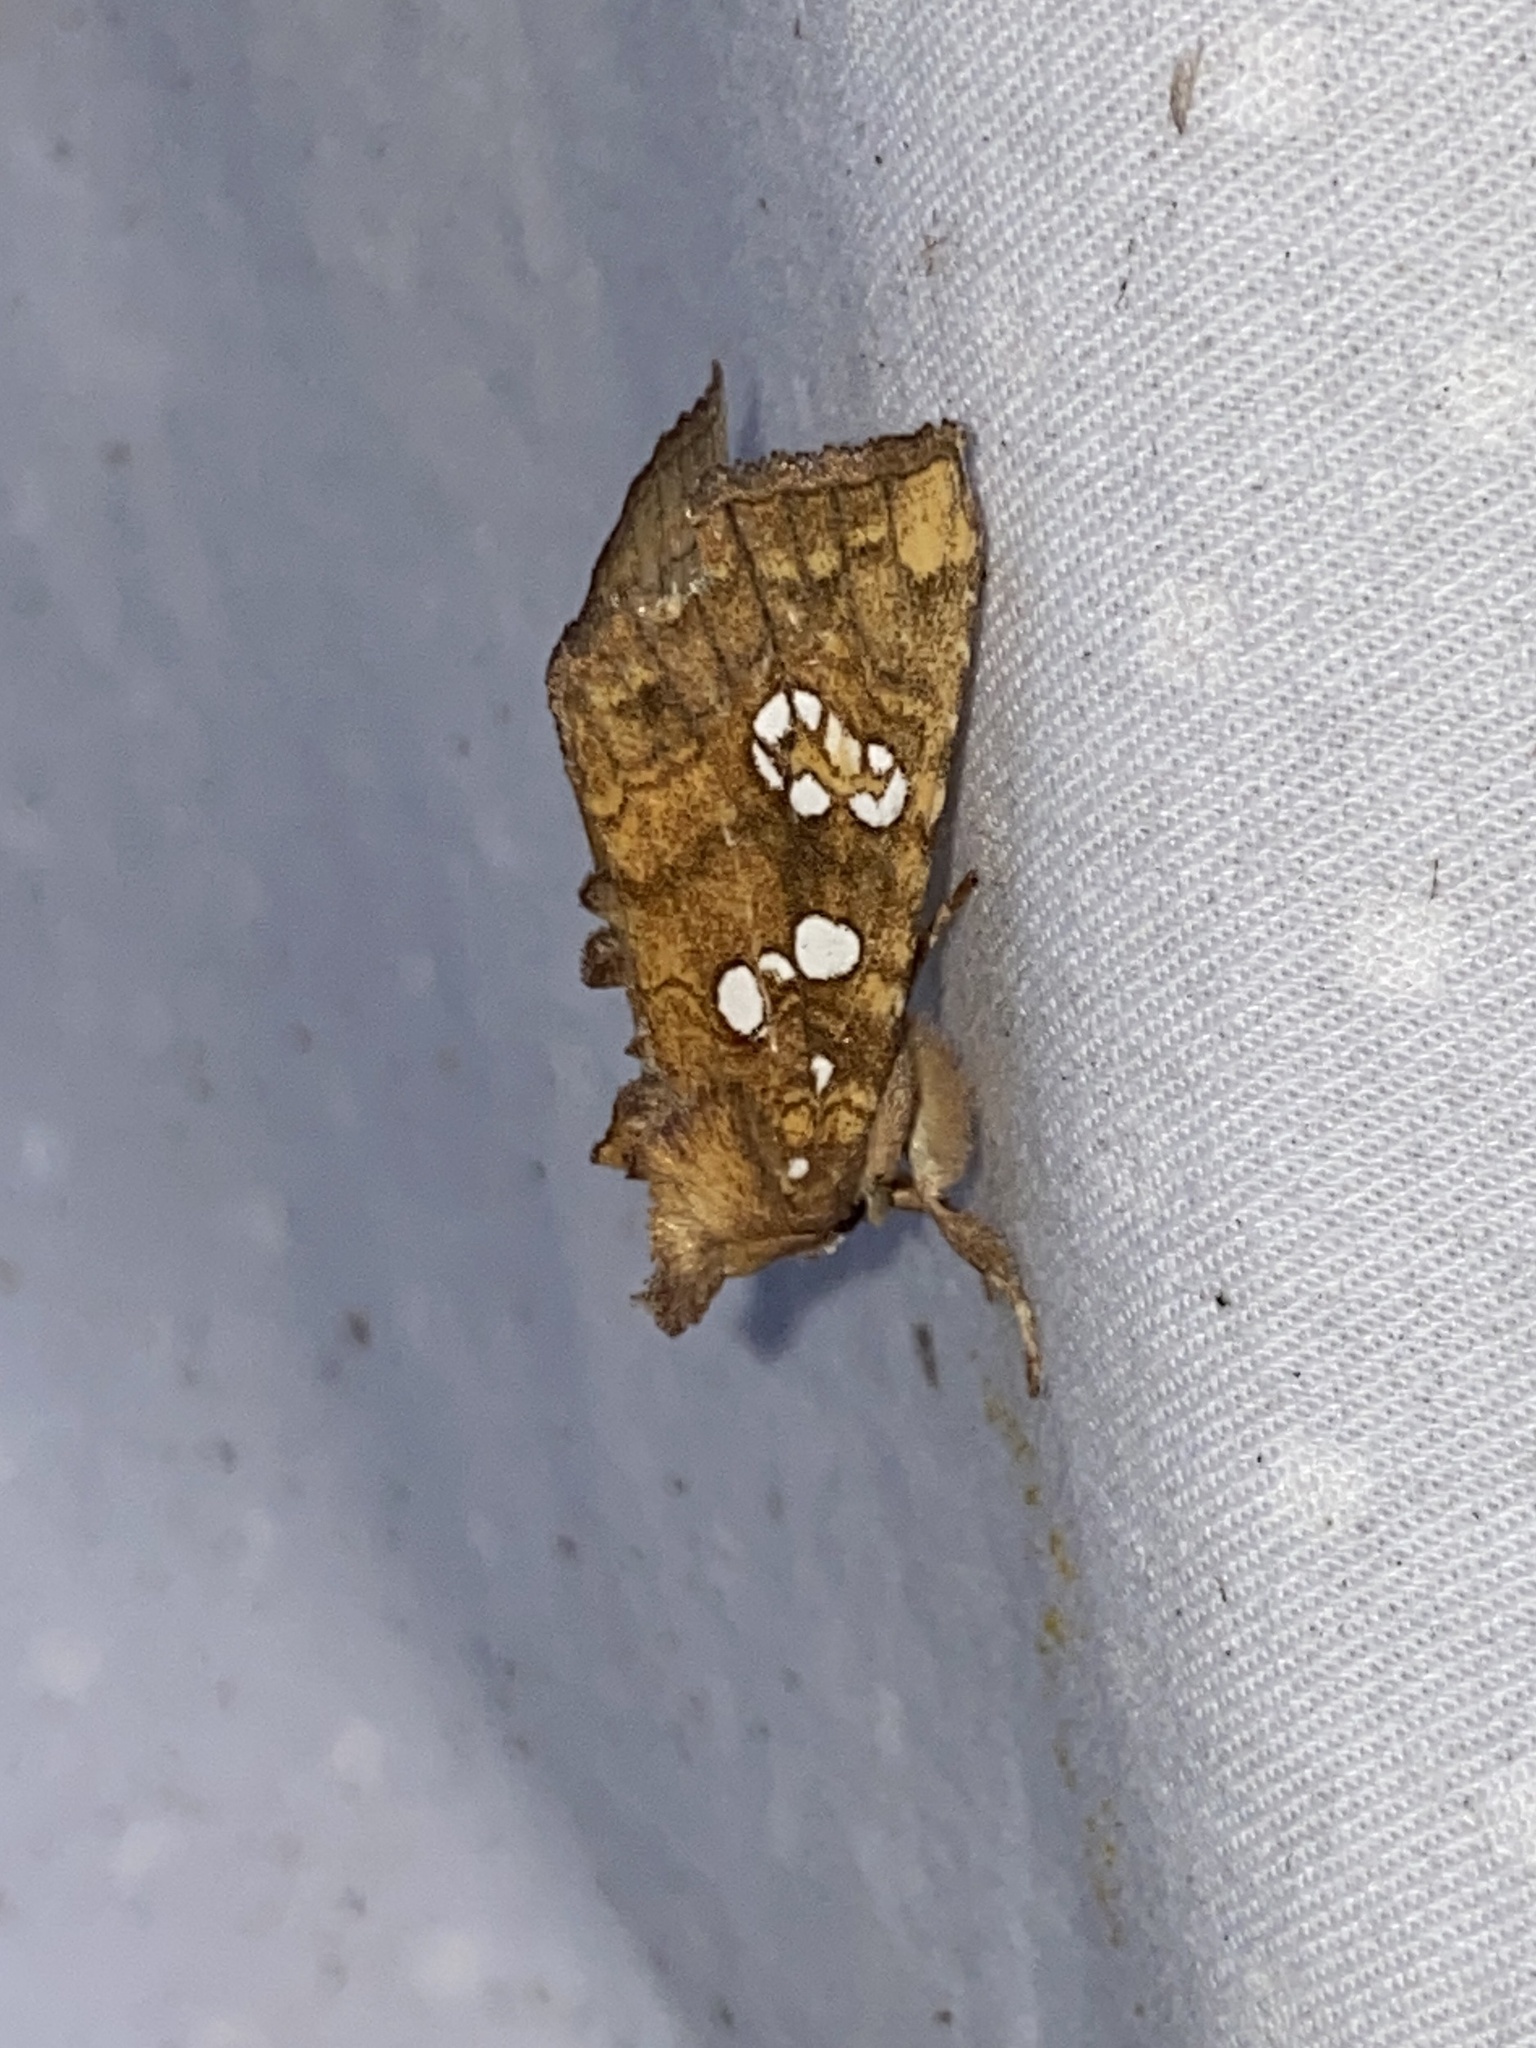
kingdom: Animalia
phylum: Arthropoda
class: Insecta
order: Lepidoptera
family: Noctuidae
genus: Papaipema
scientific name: Papaipema furcata
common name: Ash tip borer moth
